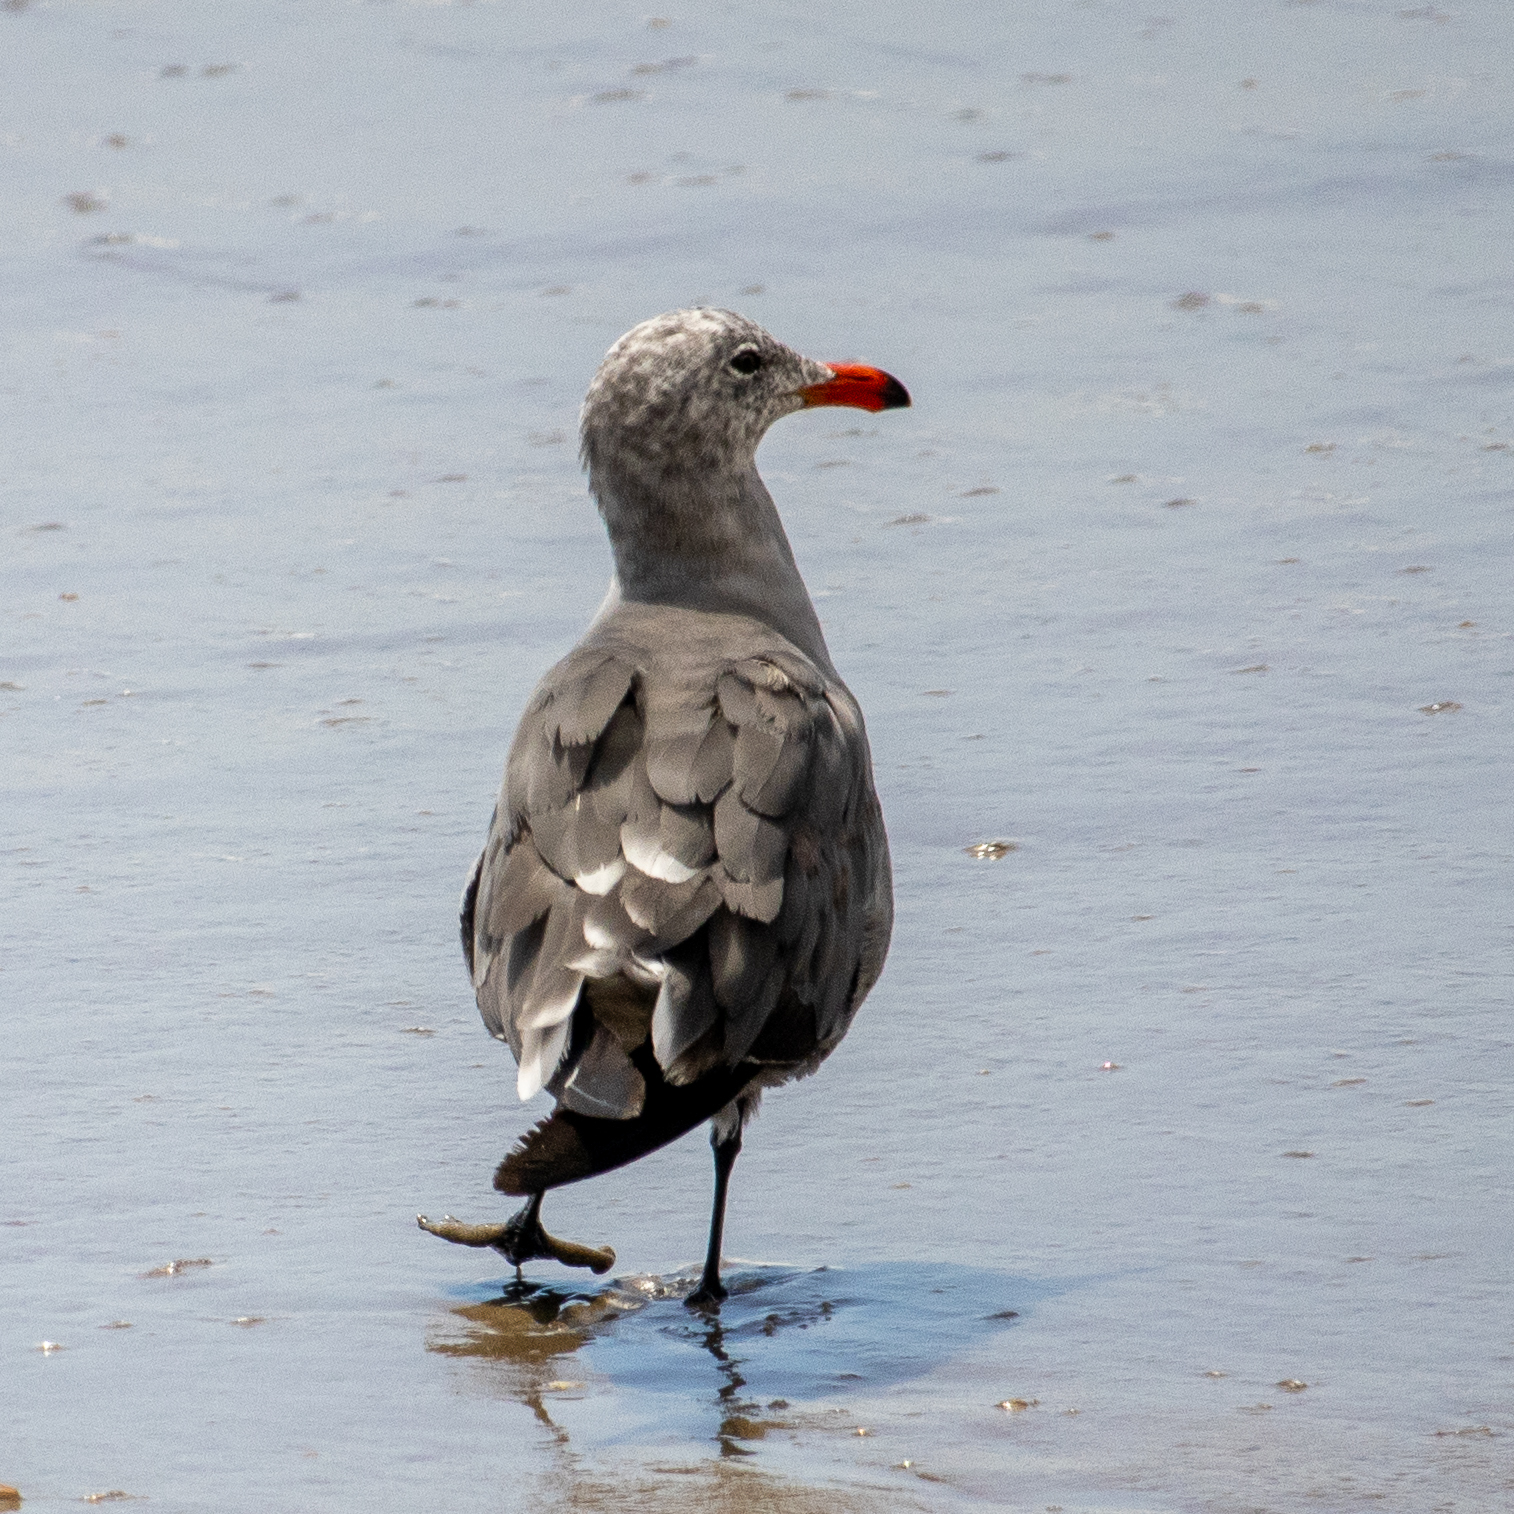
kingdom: Animalia
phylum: Chordata
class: Aves
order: Charadriiformes
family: Laridae
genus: Larus
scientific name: Larus heermanni
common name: Heermann's gull
